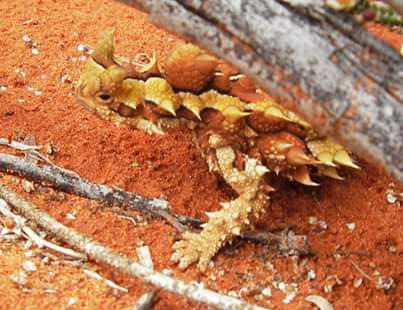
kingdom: Animalia
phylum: Chordata
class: Squamata
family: Agamidae
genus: Moloch
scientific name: Moloch horridus
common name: Mountain devil
